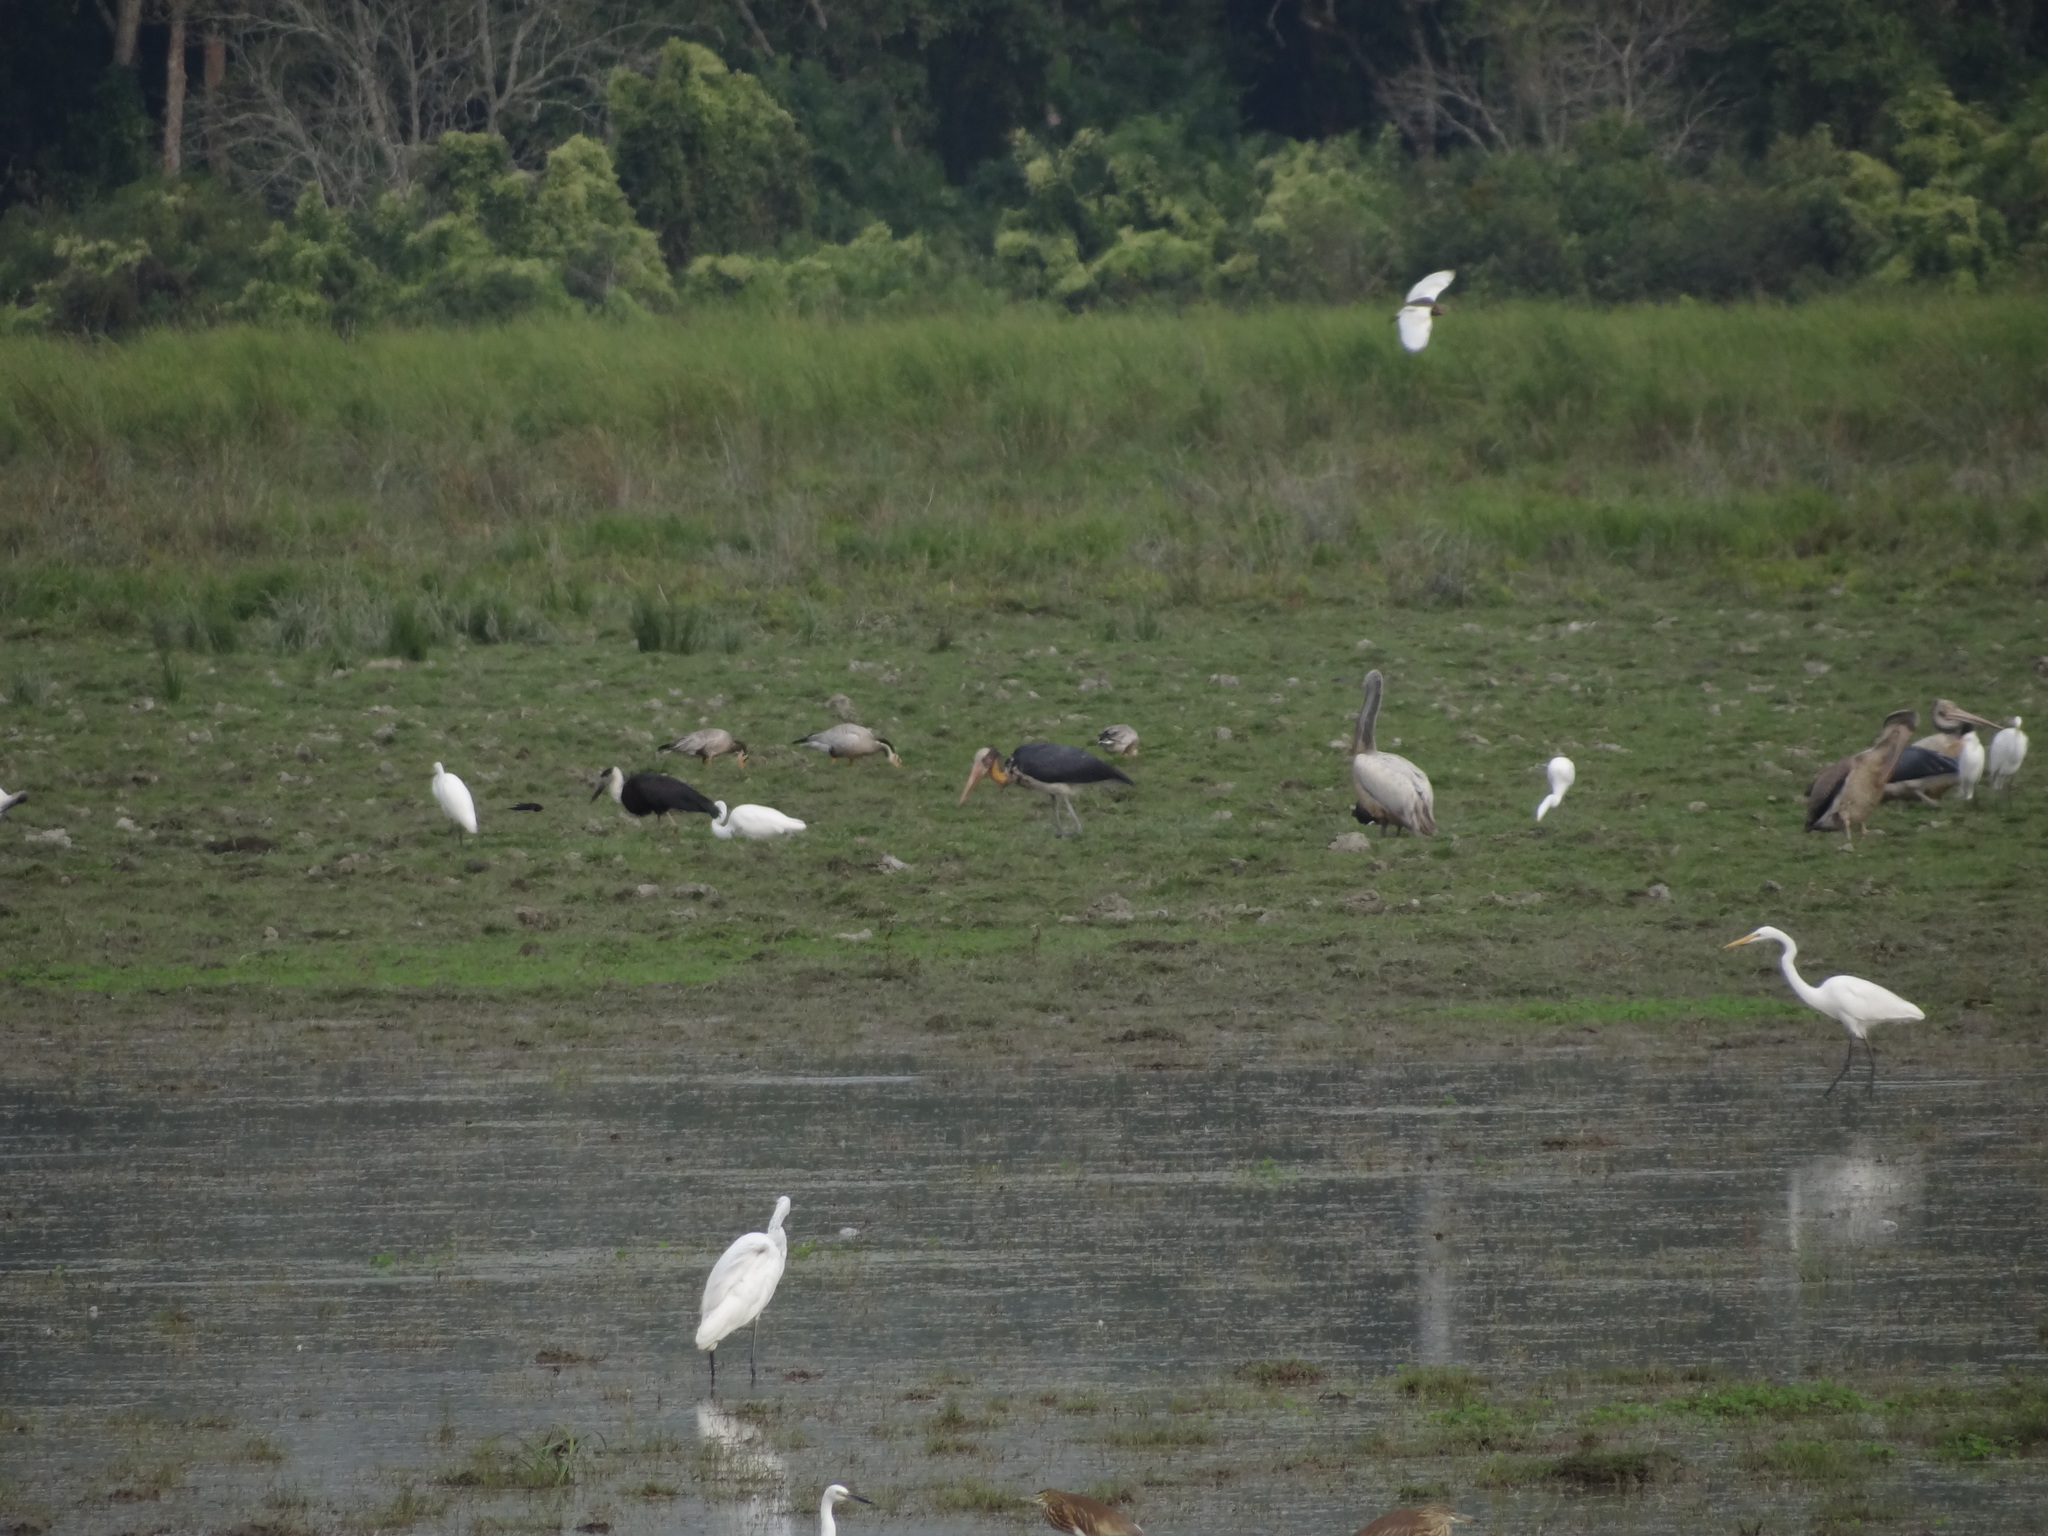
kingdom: Animalia
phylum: Chordata
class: Aves
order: Ciconiiformes
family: Ciconiidae
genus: Leptoptilos
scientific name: Leptoptilos javanicus
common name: Lesser adjutant
